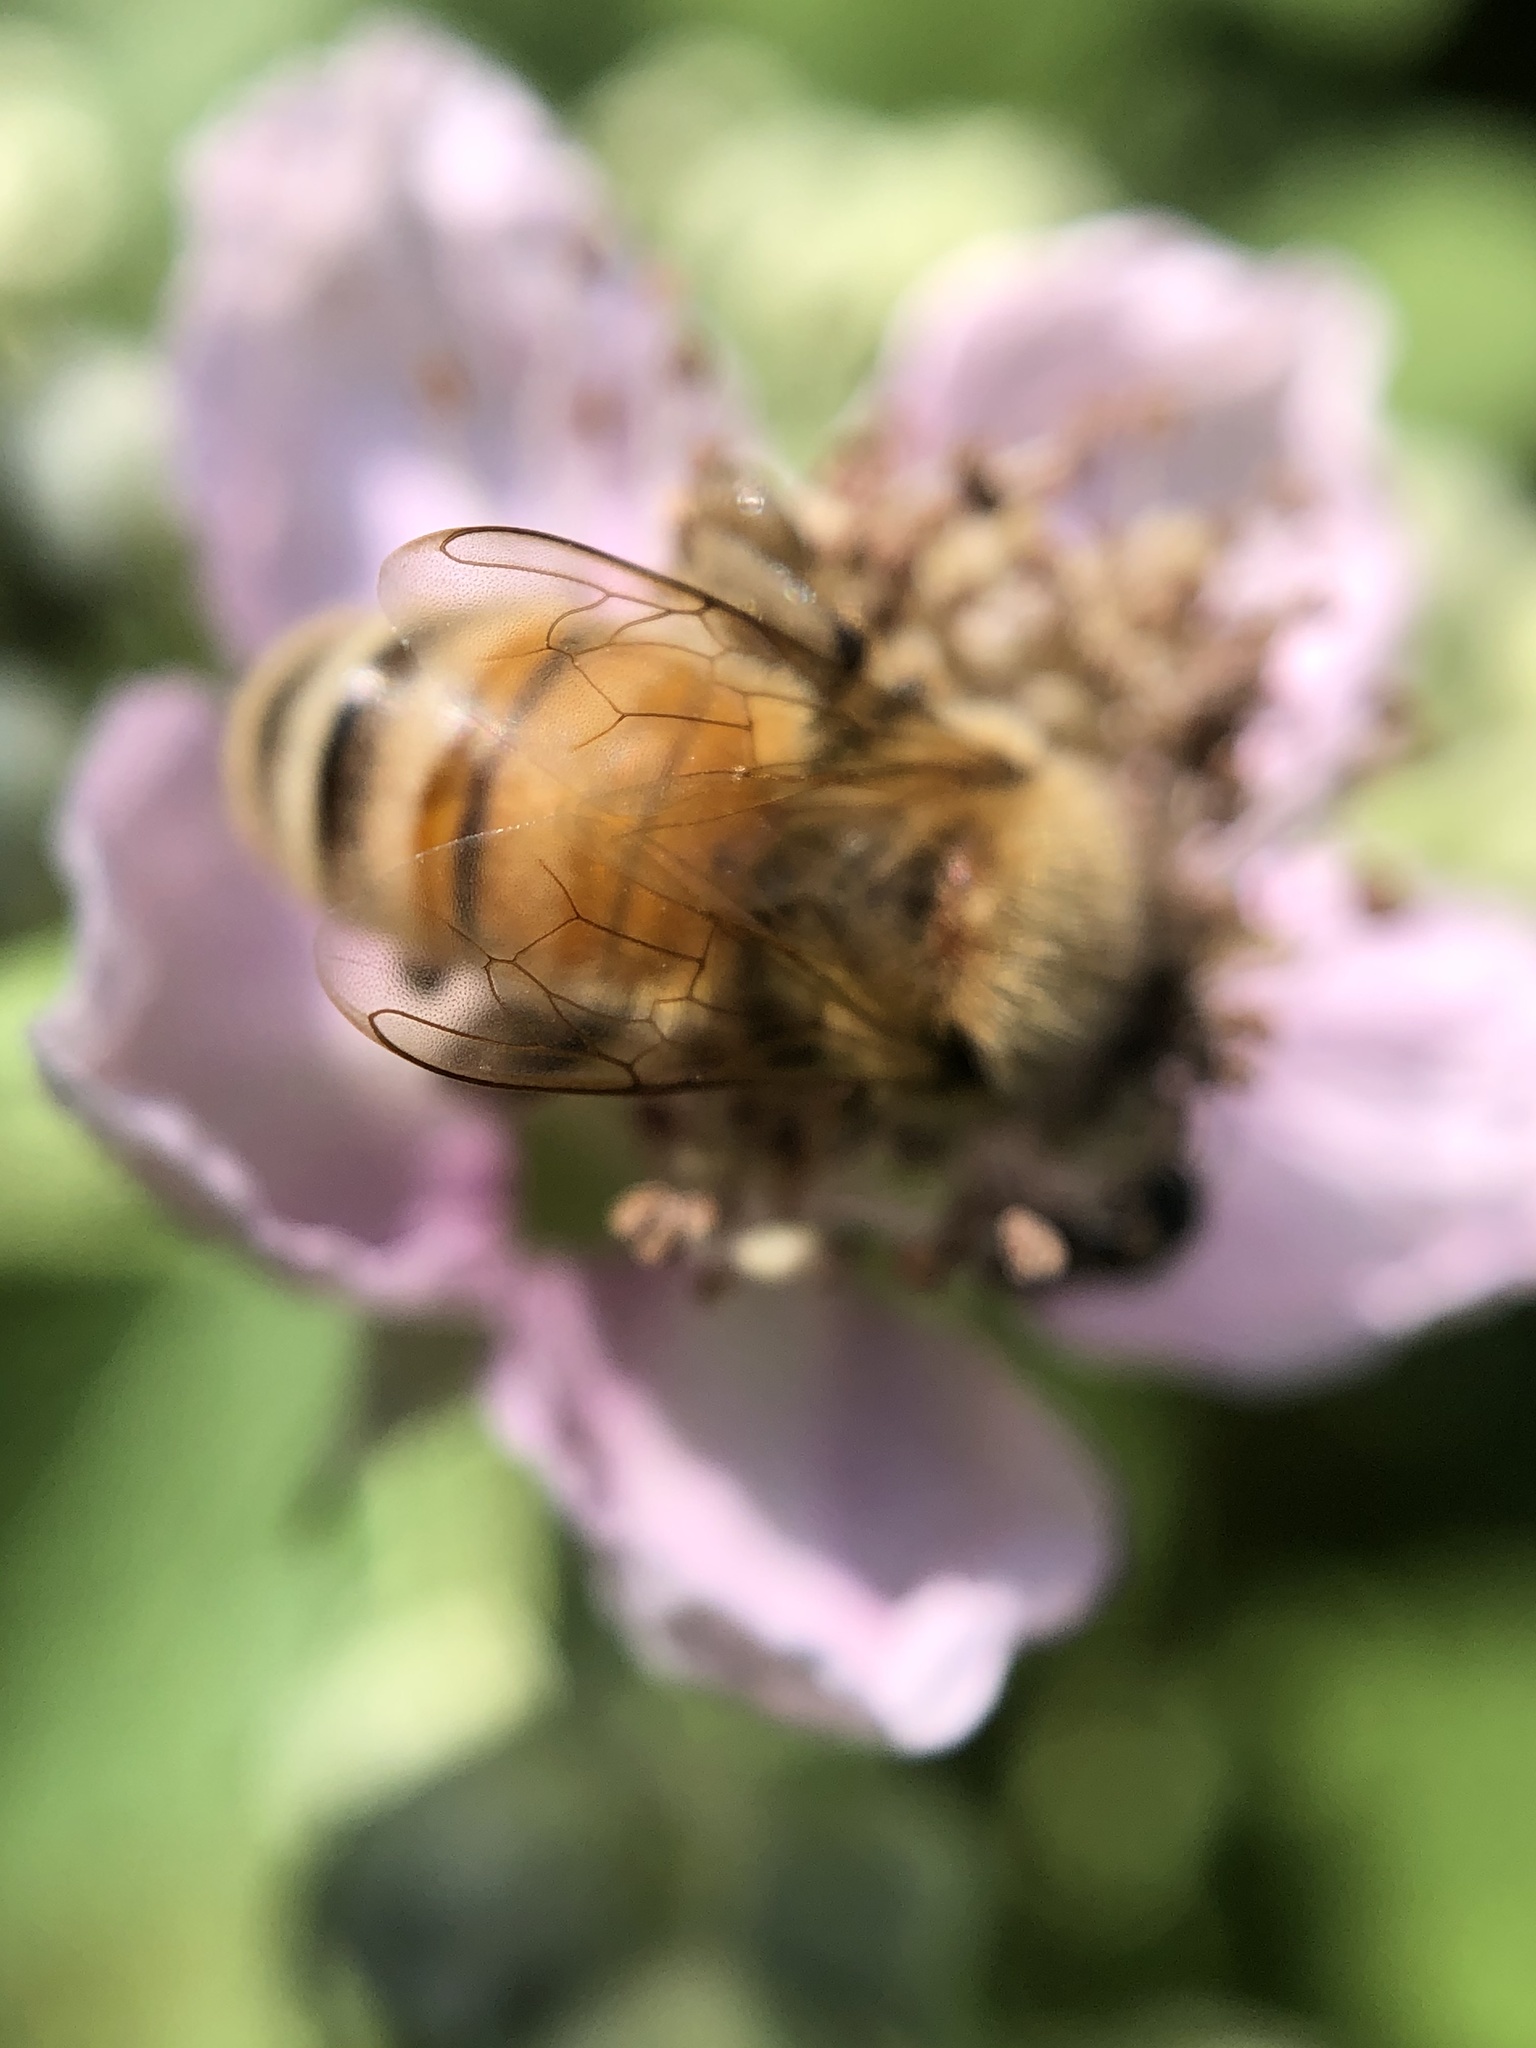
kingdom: Animalia
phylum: Arthropoda
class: Insecta
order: Hymenoptera
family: Apidae
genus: Apis
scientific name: Apis mellifera
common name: Honey bee
